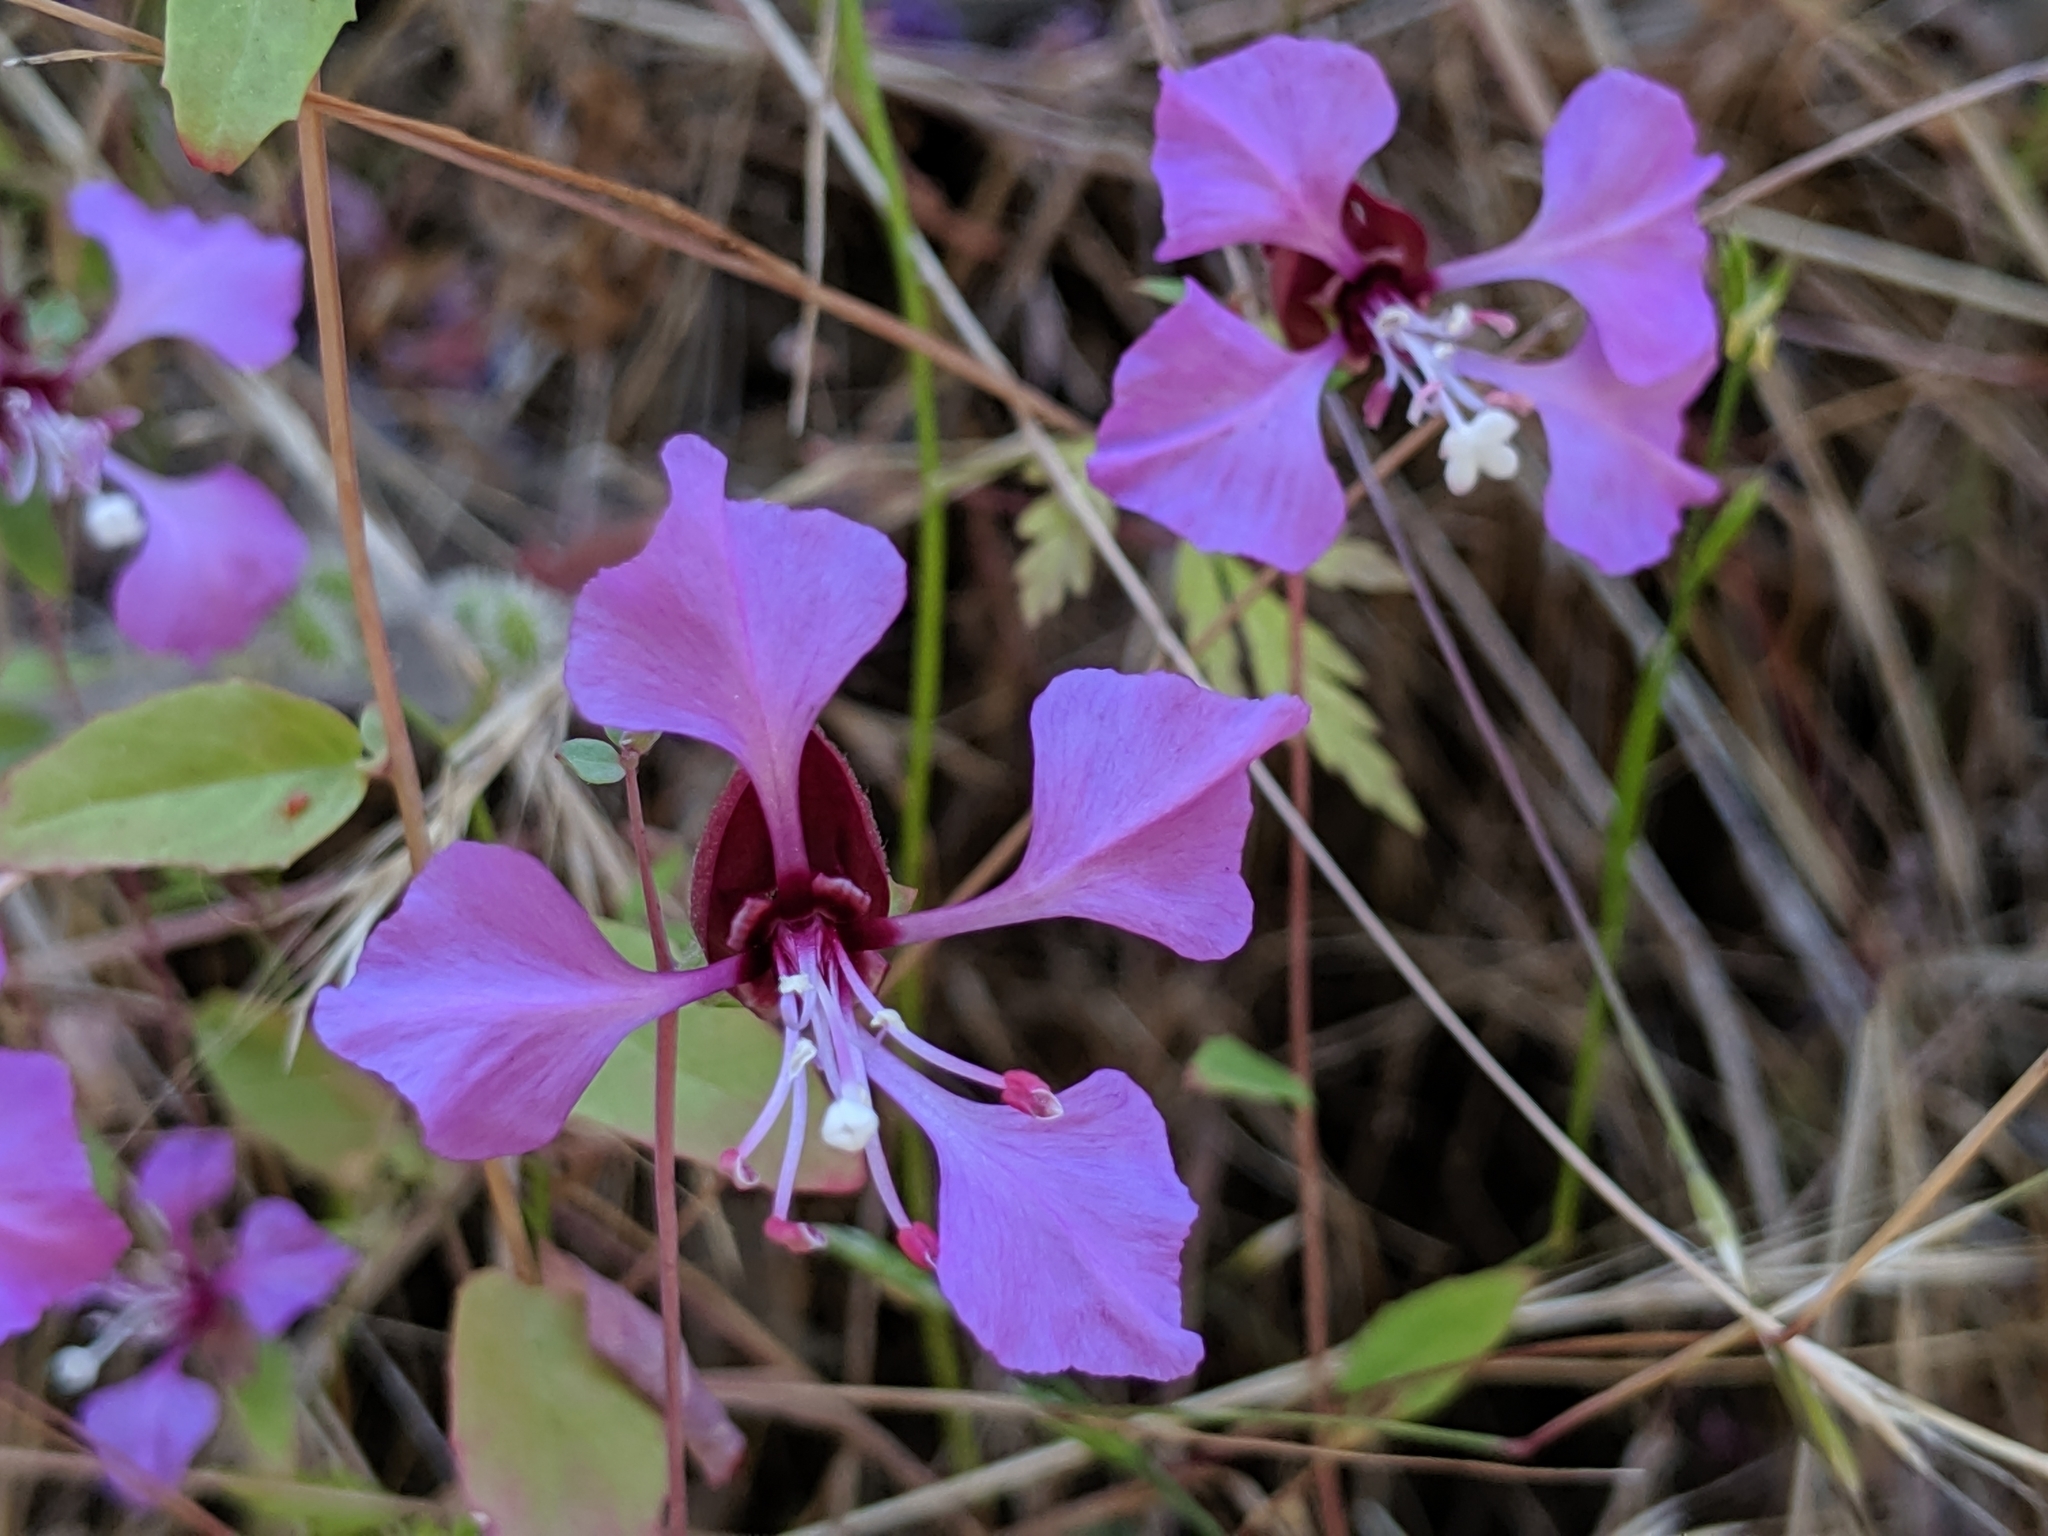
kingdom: Plantae
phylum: Tracheophyta
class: Magnoliopsida
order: Myrtales
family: Onagraceae
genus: Clarkia
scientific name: Clarkia unguiculata
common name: Clarkia
